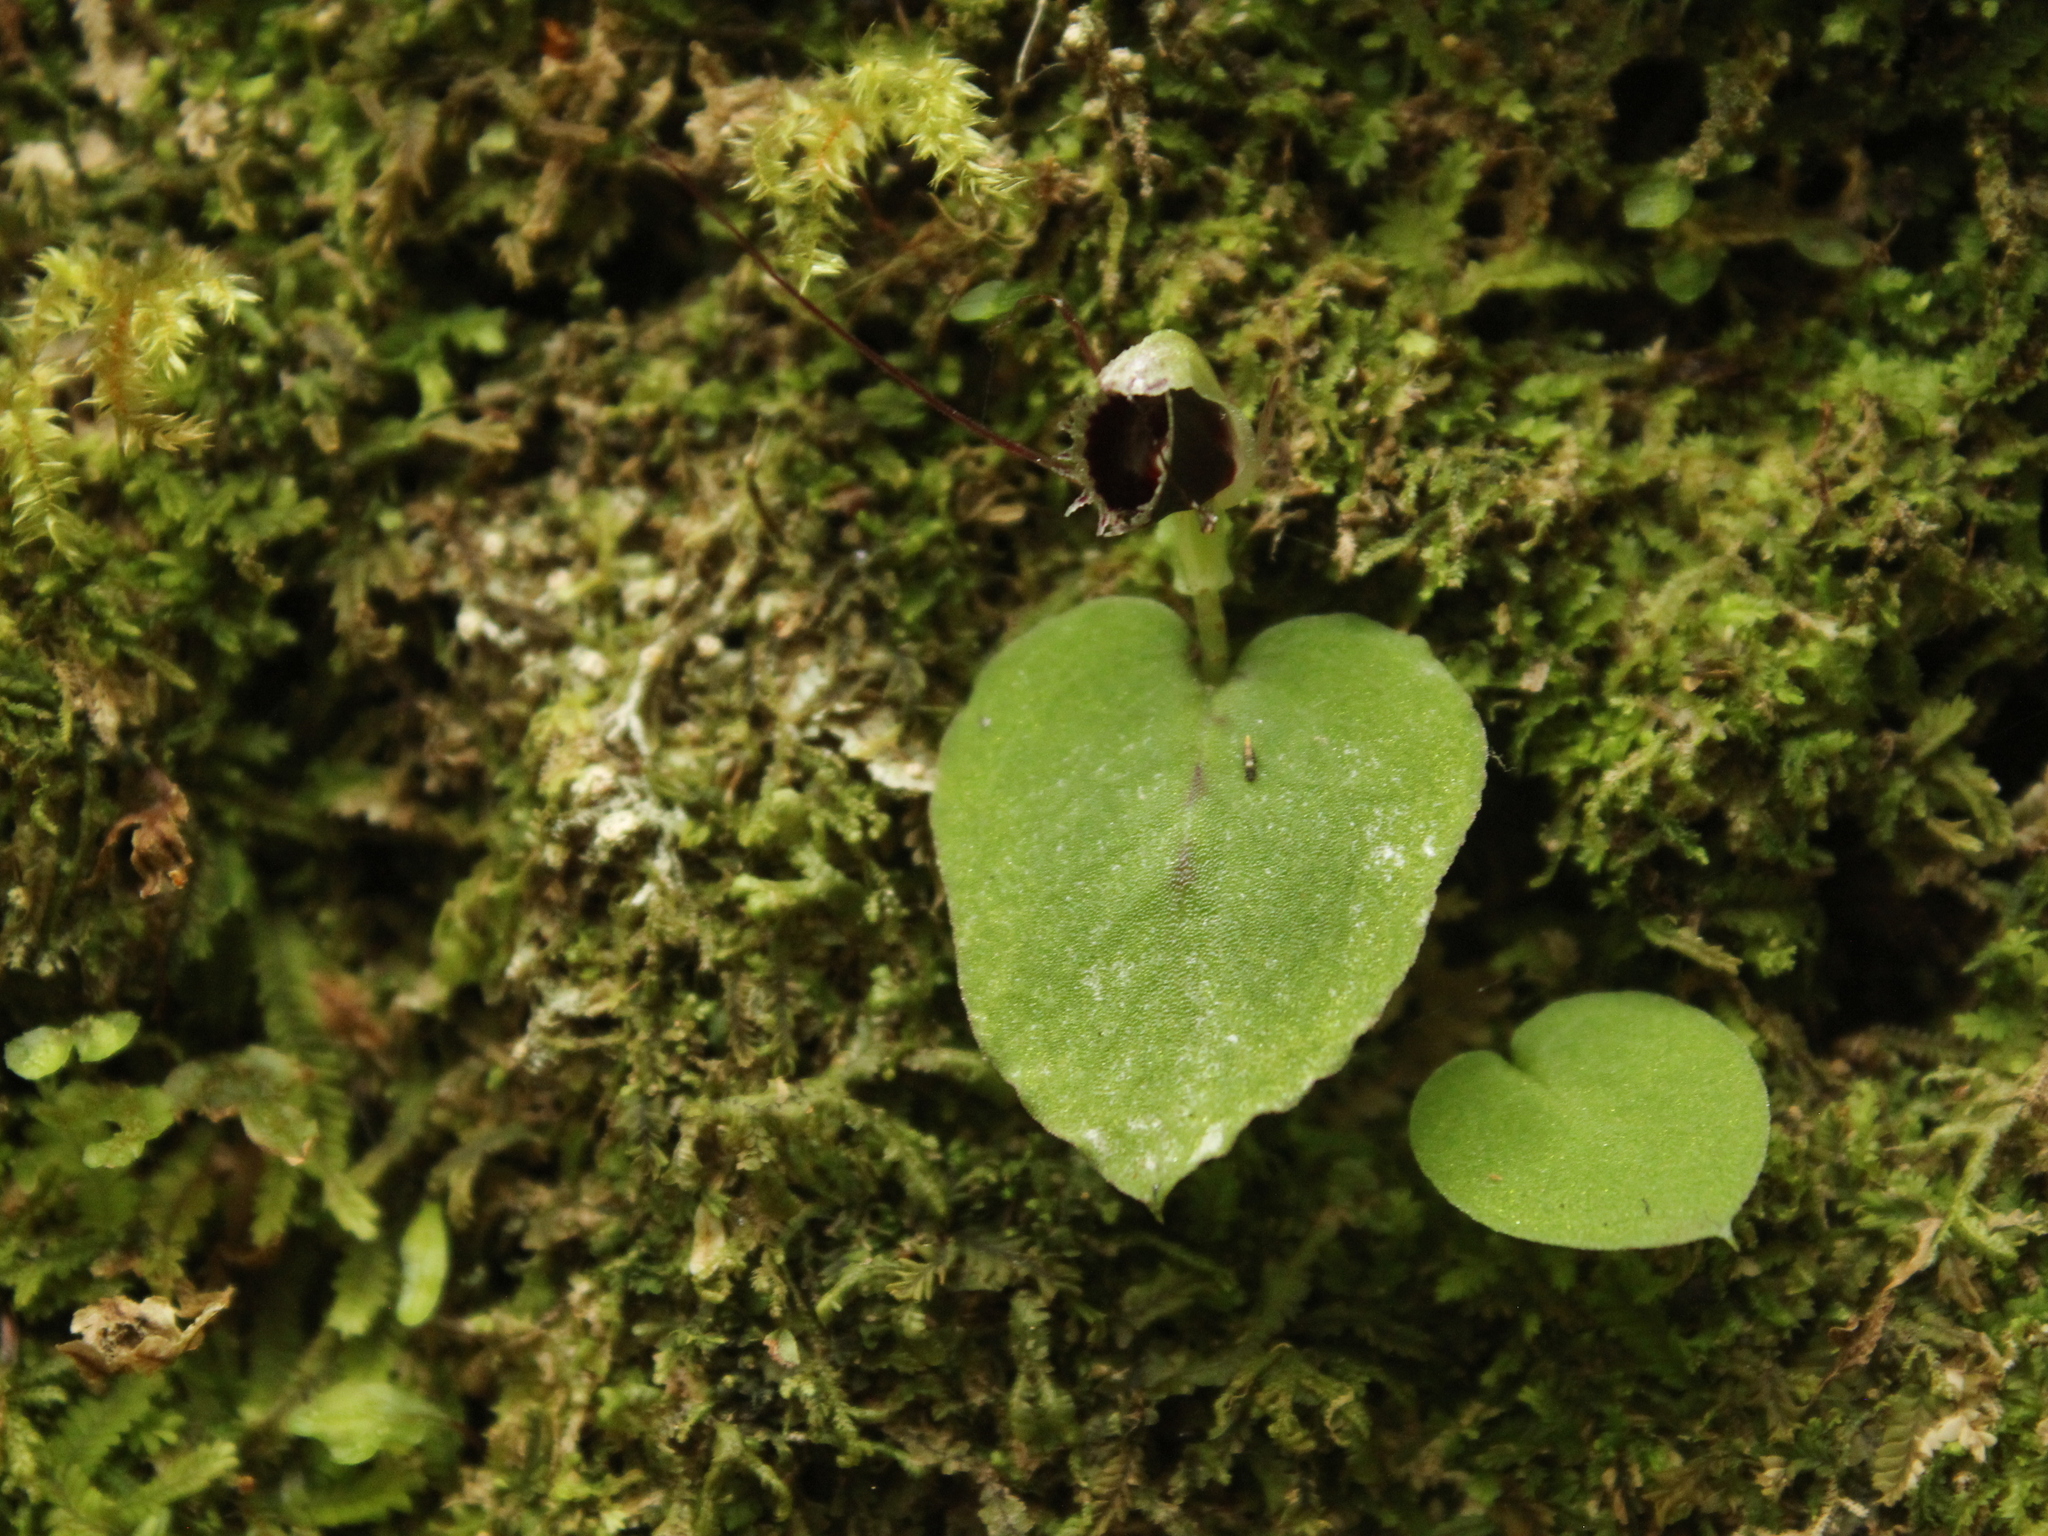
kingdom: Plantae
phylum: Tracheophyta
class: Liliopsida
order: Asparagales
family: Orchidaceae
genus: Corybas
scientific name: Corybas oblongus
